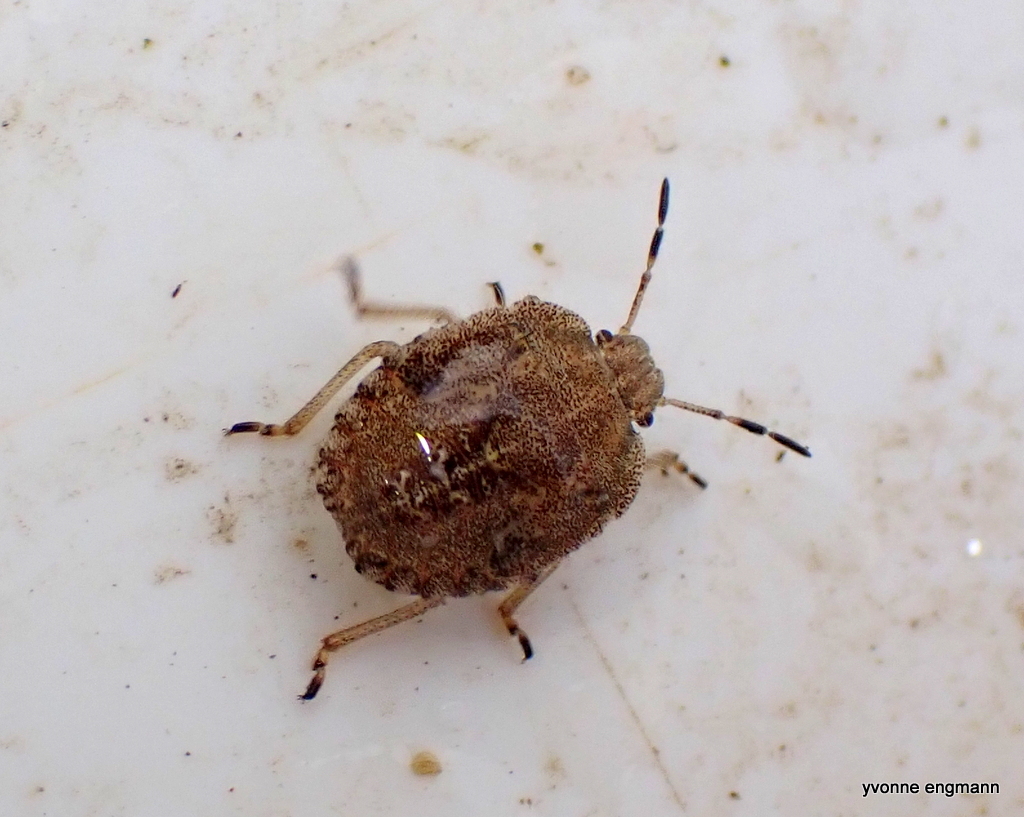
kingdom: Animalia
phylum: Arthropoda
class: Insecta
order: Hemiptera
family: Pentatomidae
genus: Dolycoris
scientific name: Dolycoris baccarum
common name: Sloe bug
